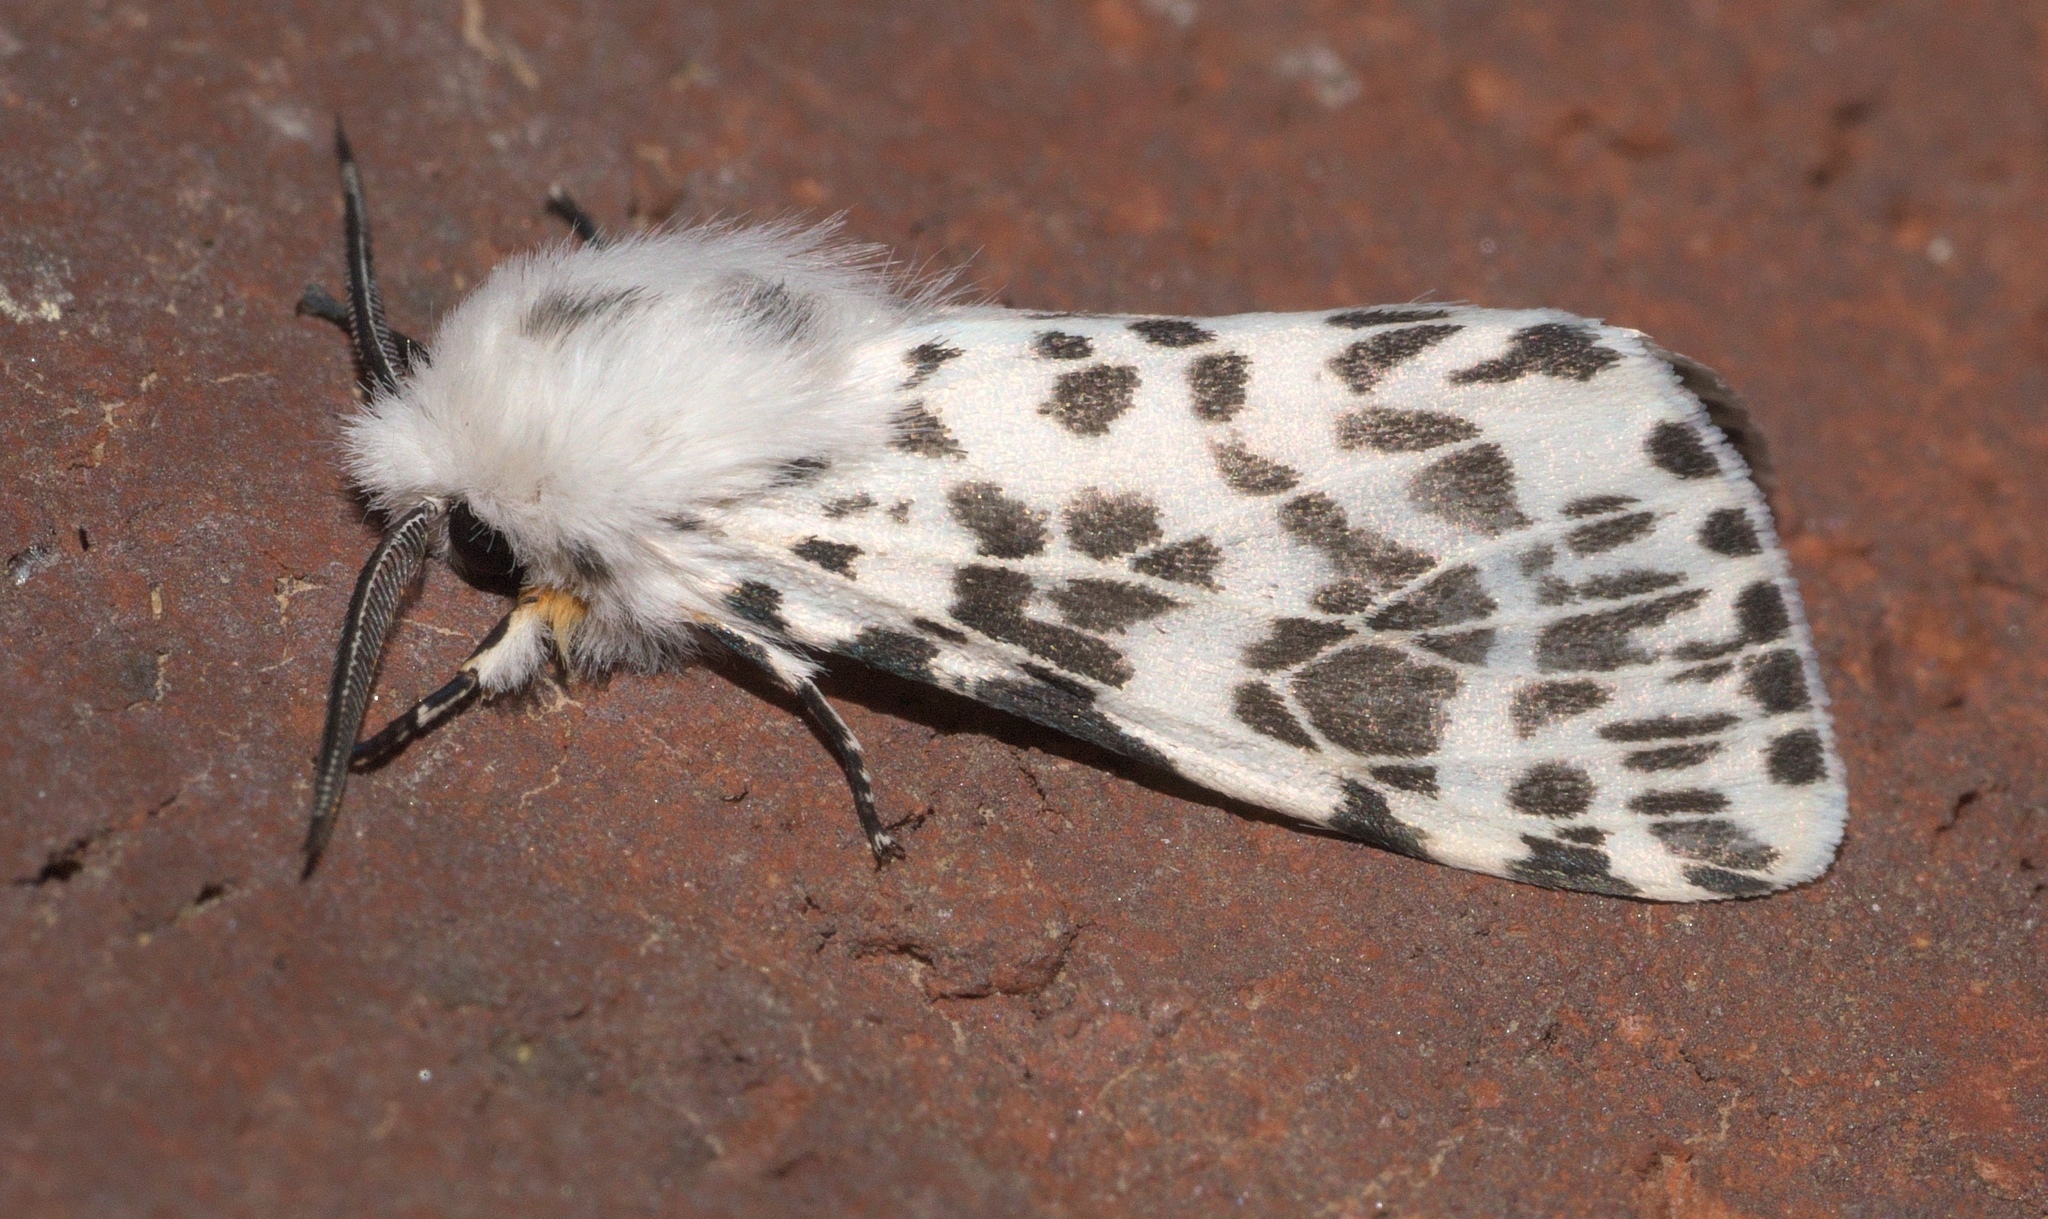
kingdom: Animalia
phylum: Arthropoda
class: Insecta
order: Lepidoptera
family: Erebidae
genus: Hyphantria
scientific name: Hyphantria cunea
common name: American white moth
